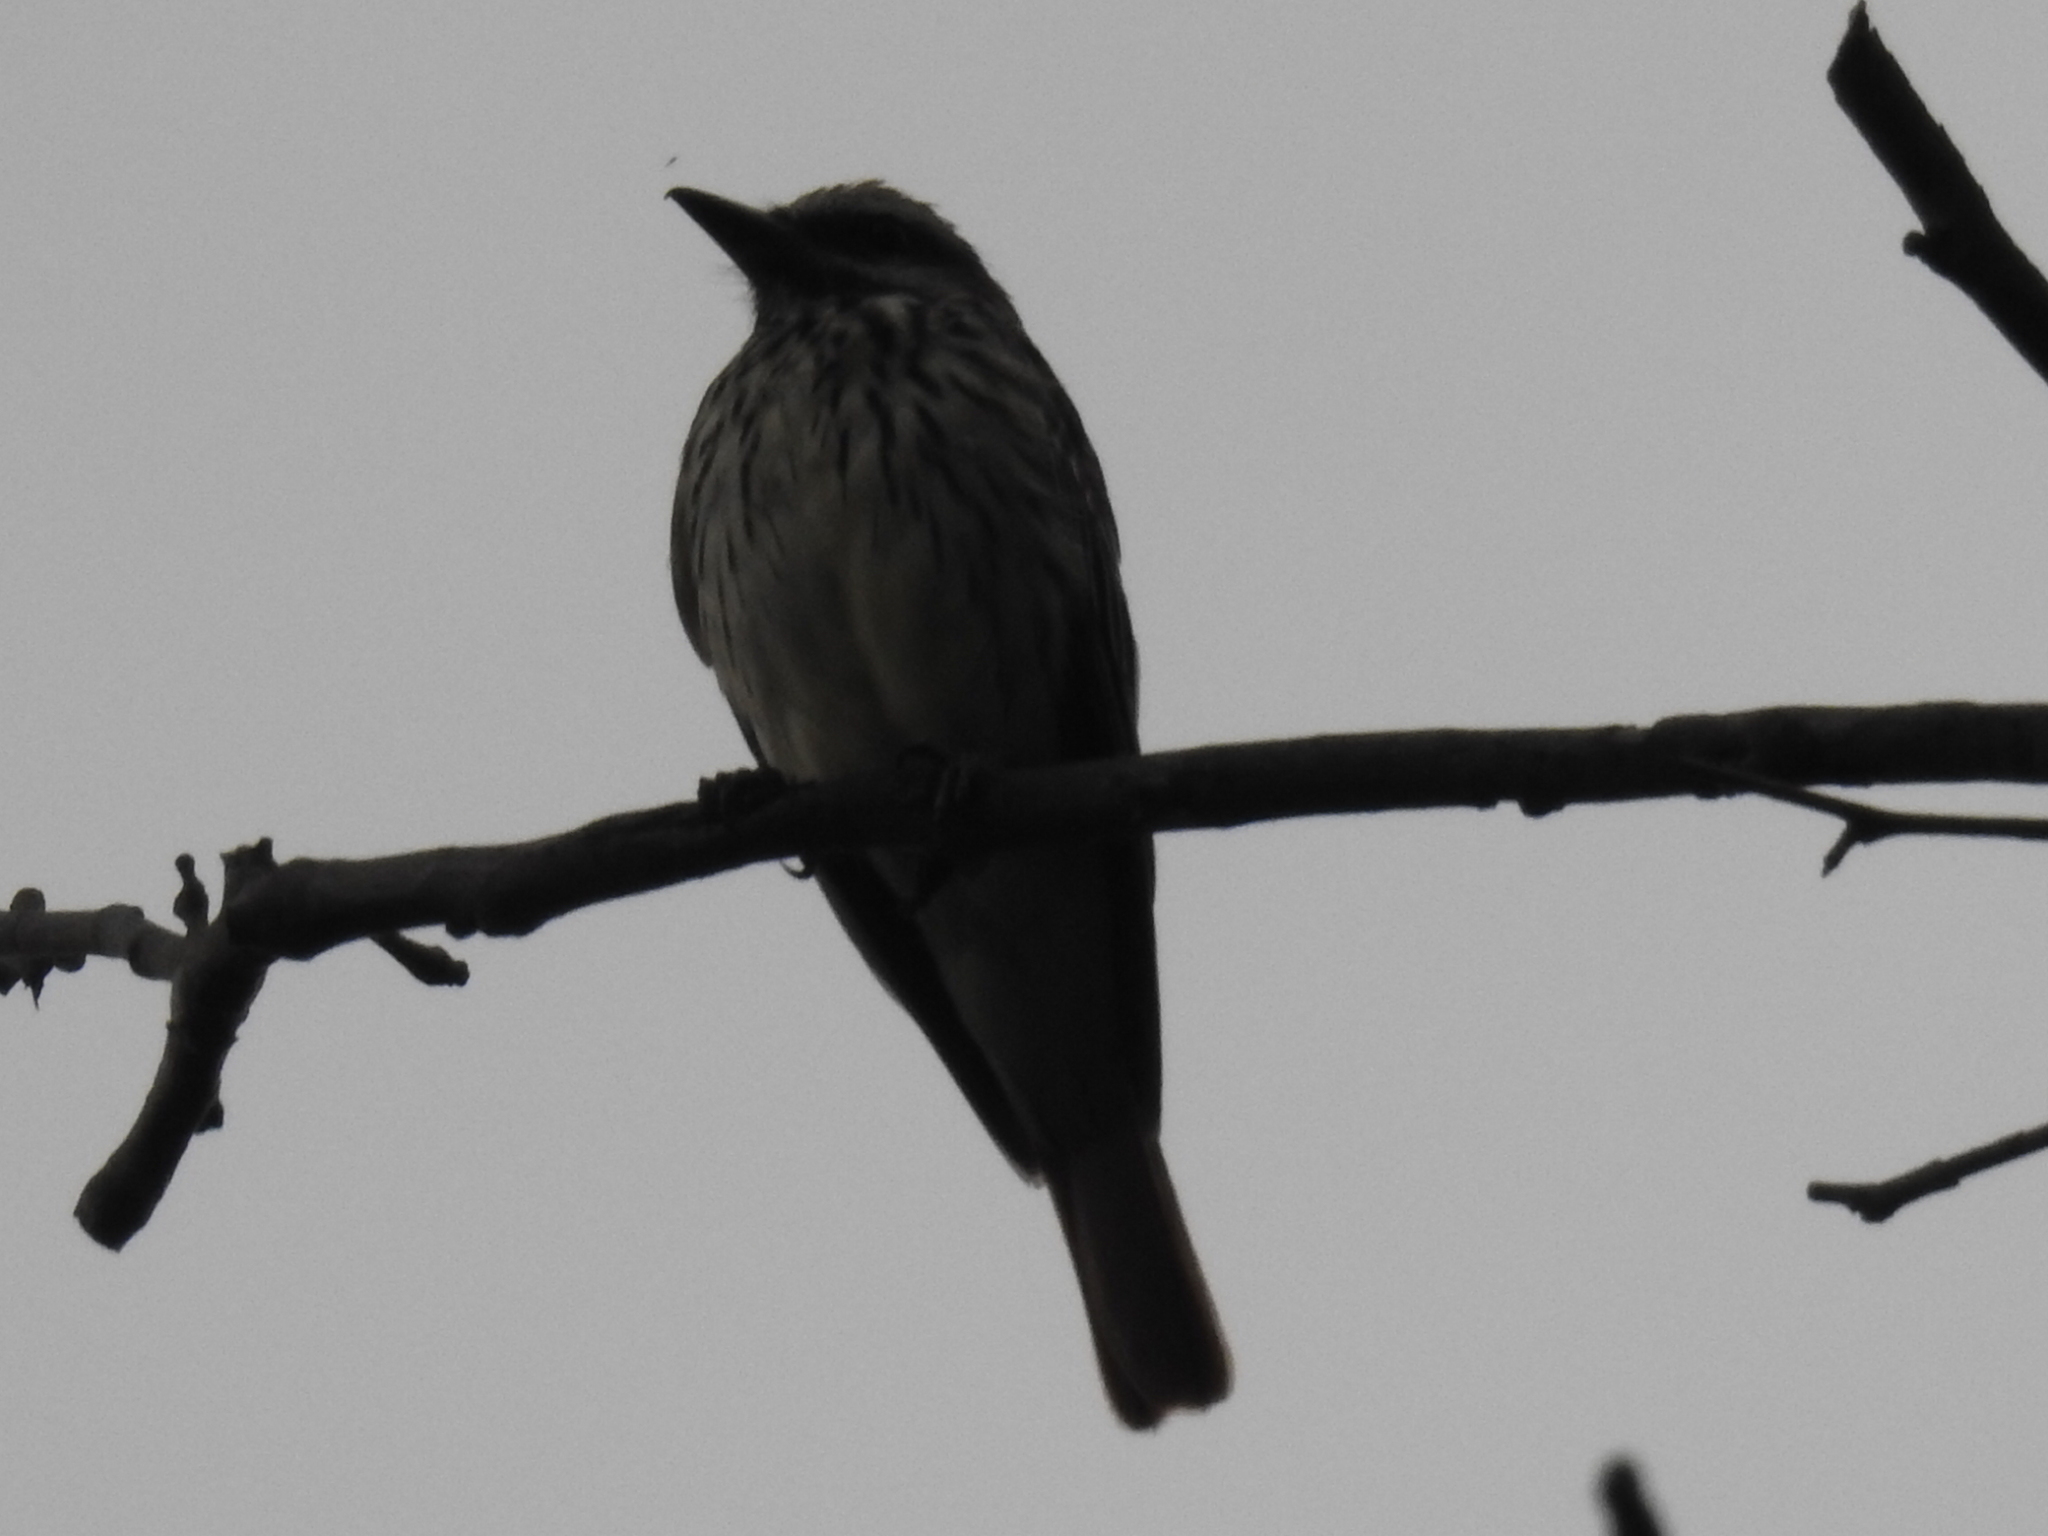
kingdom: Animalia
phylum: Chordata
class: Aves
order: Passeriformes
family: Tyrannidae
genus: Myiodynastes
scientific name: Myiodynastes luteiventris
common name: Sulphur-bellied flycatcher
